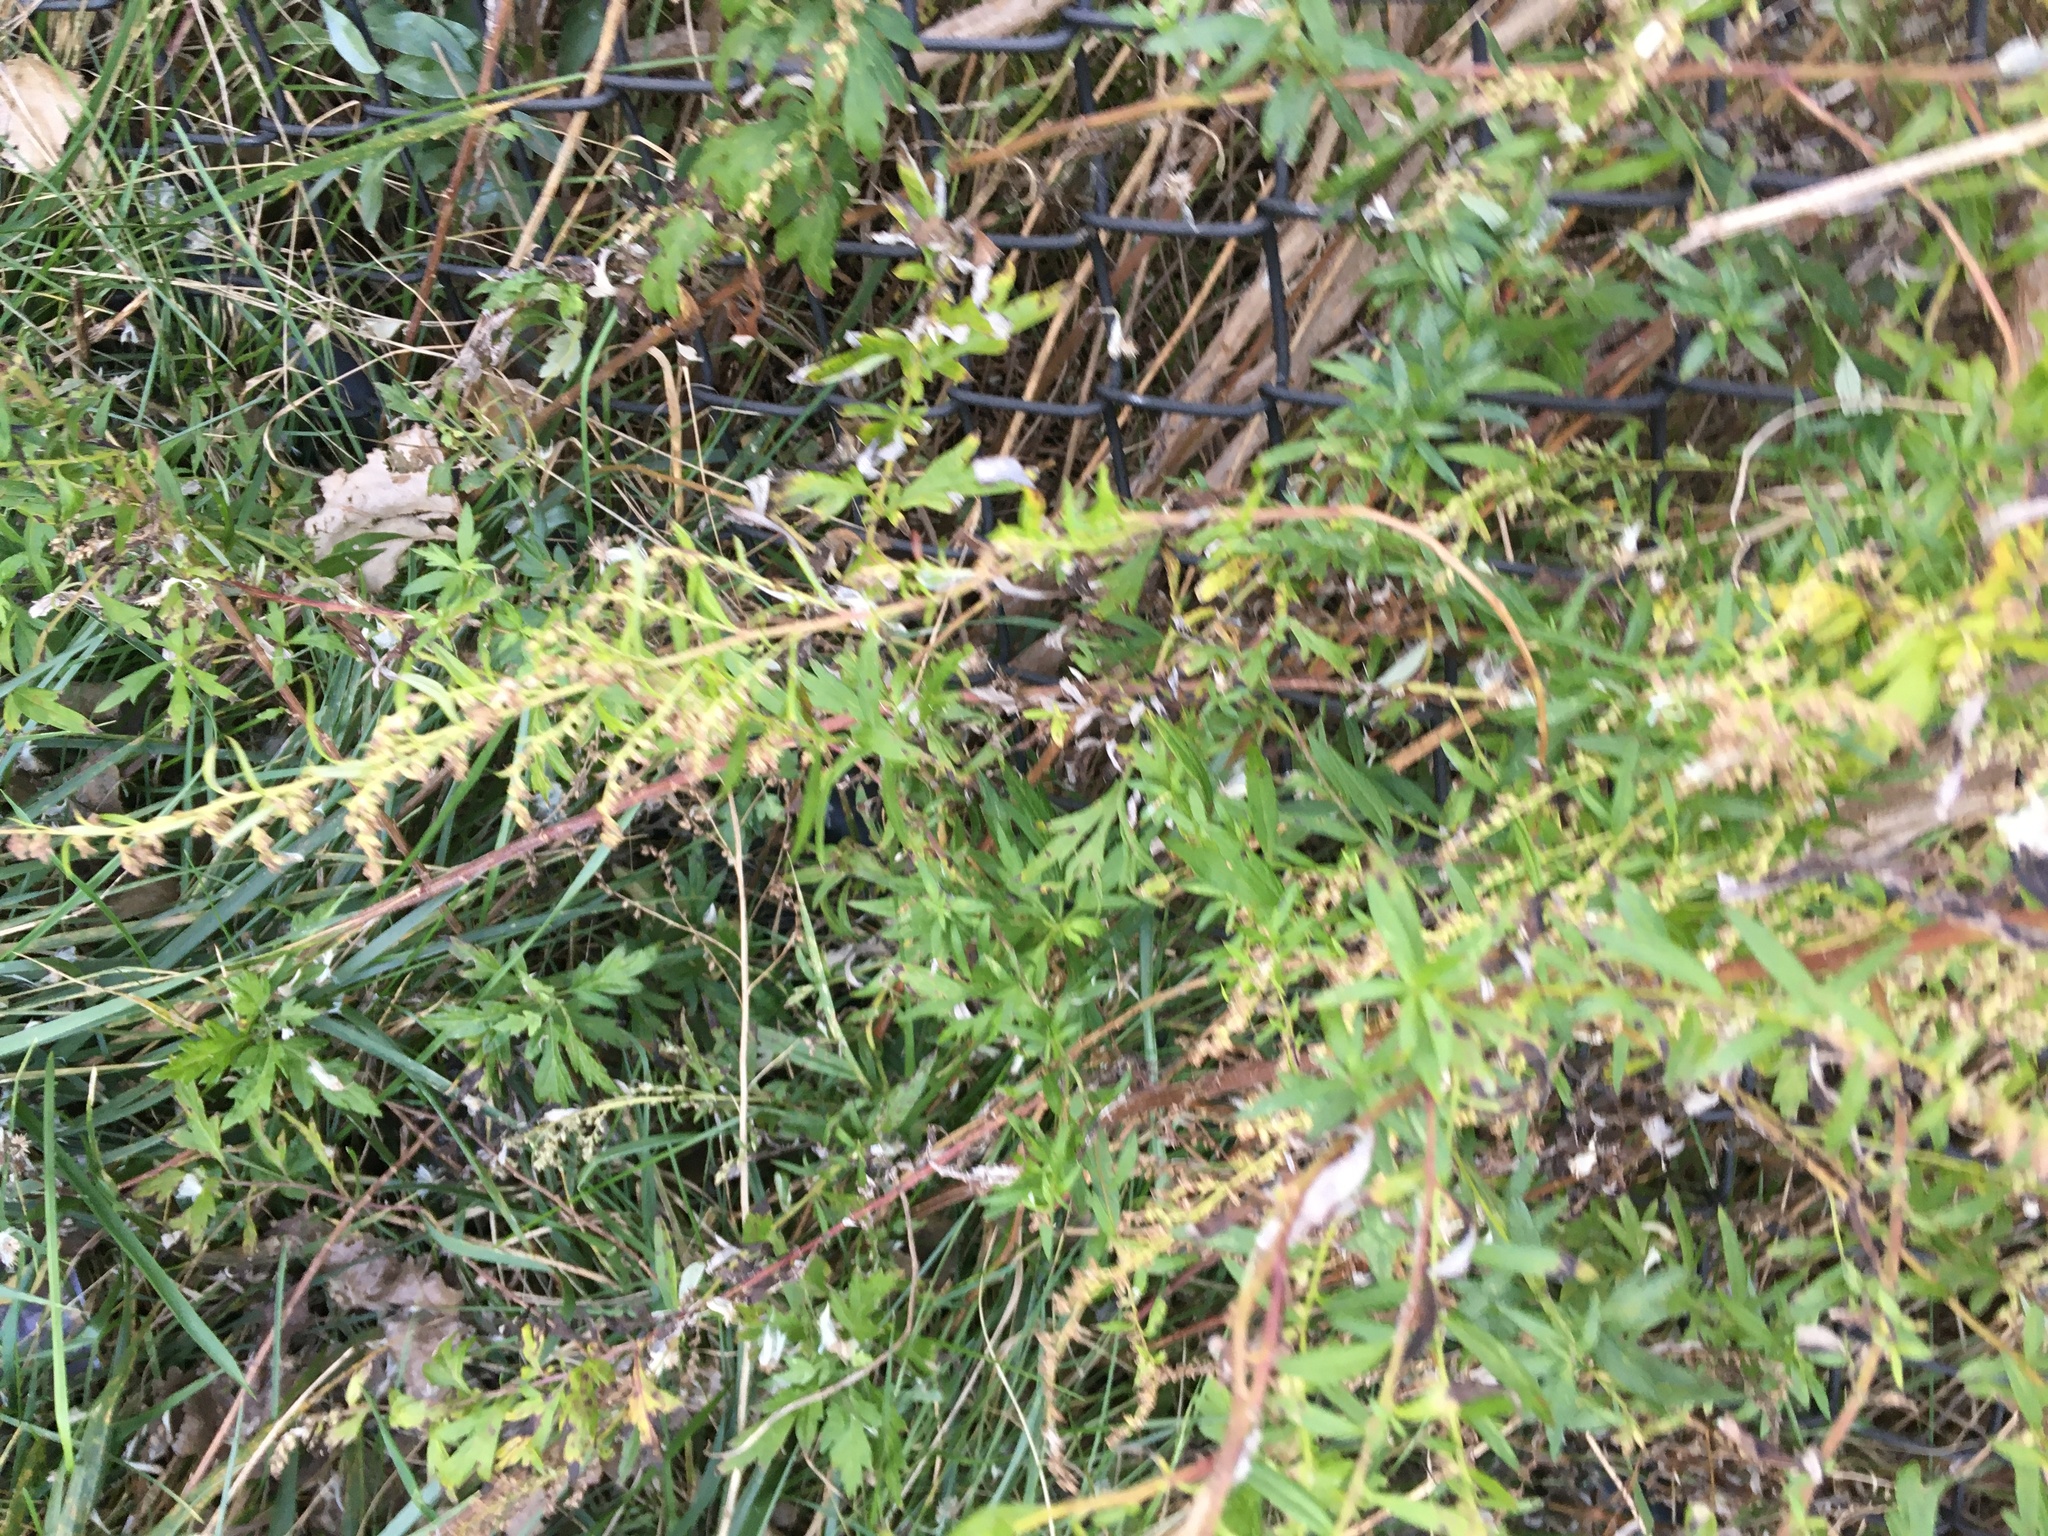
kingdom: Plantae
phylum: Tracheophyta
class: Magnoliopsida
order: Asterales
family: Asteraceae
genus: Artemisia
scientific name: Artemisia vulgaris
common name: Mugwort
